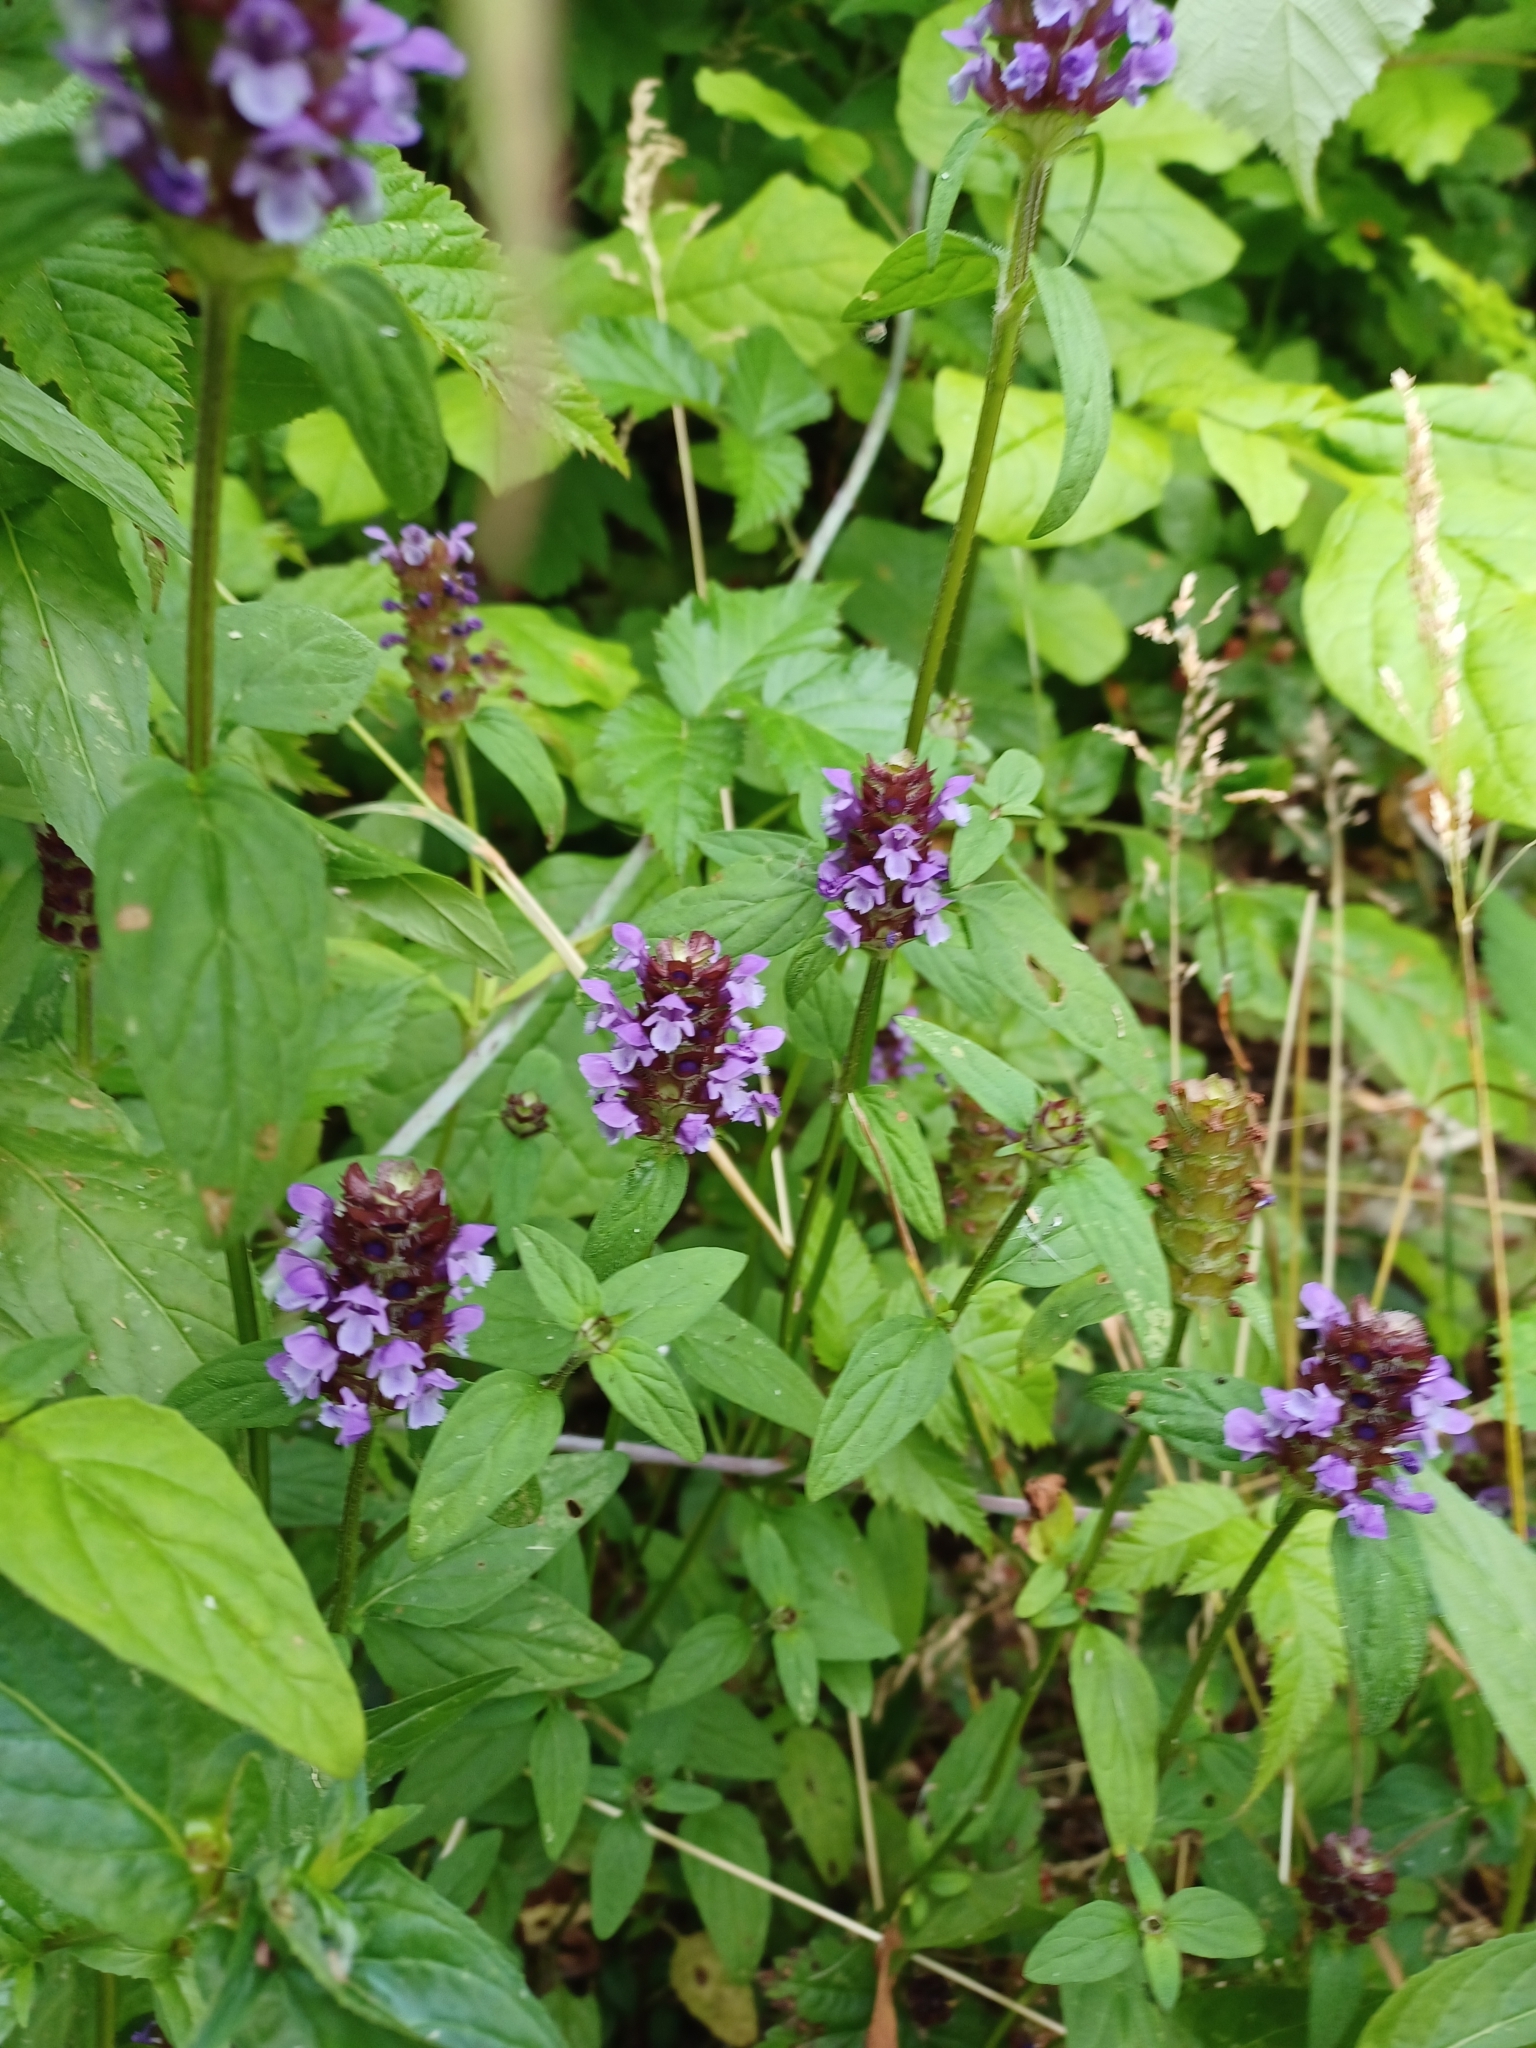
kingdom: Plantae
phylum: Tracheophyta
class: Magnoliopsida
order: Lamiales
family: Lamiaceae
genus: Prunella
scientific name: Prunella vulgaris
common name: Heal-all
